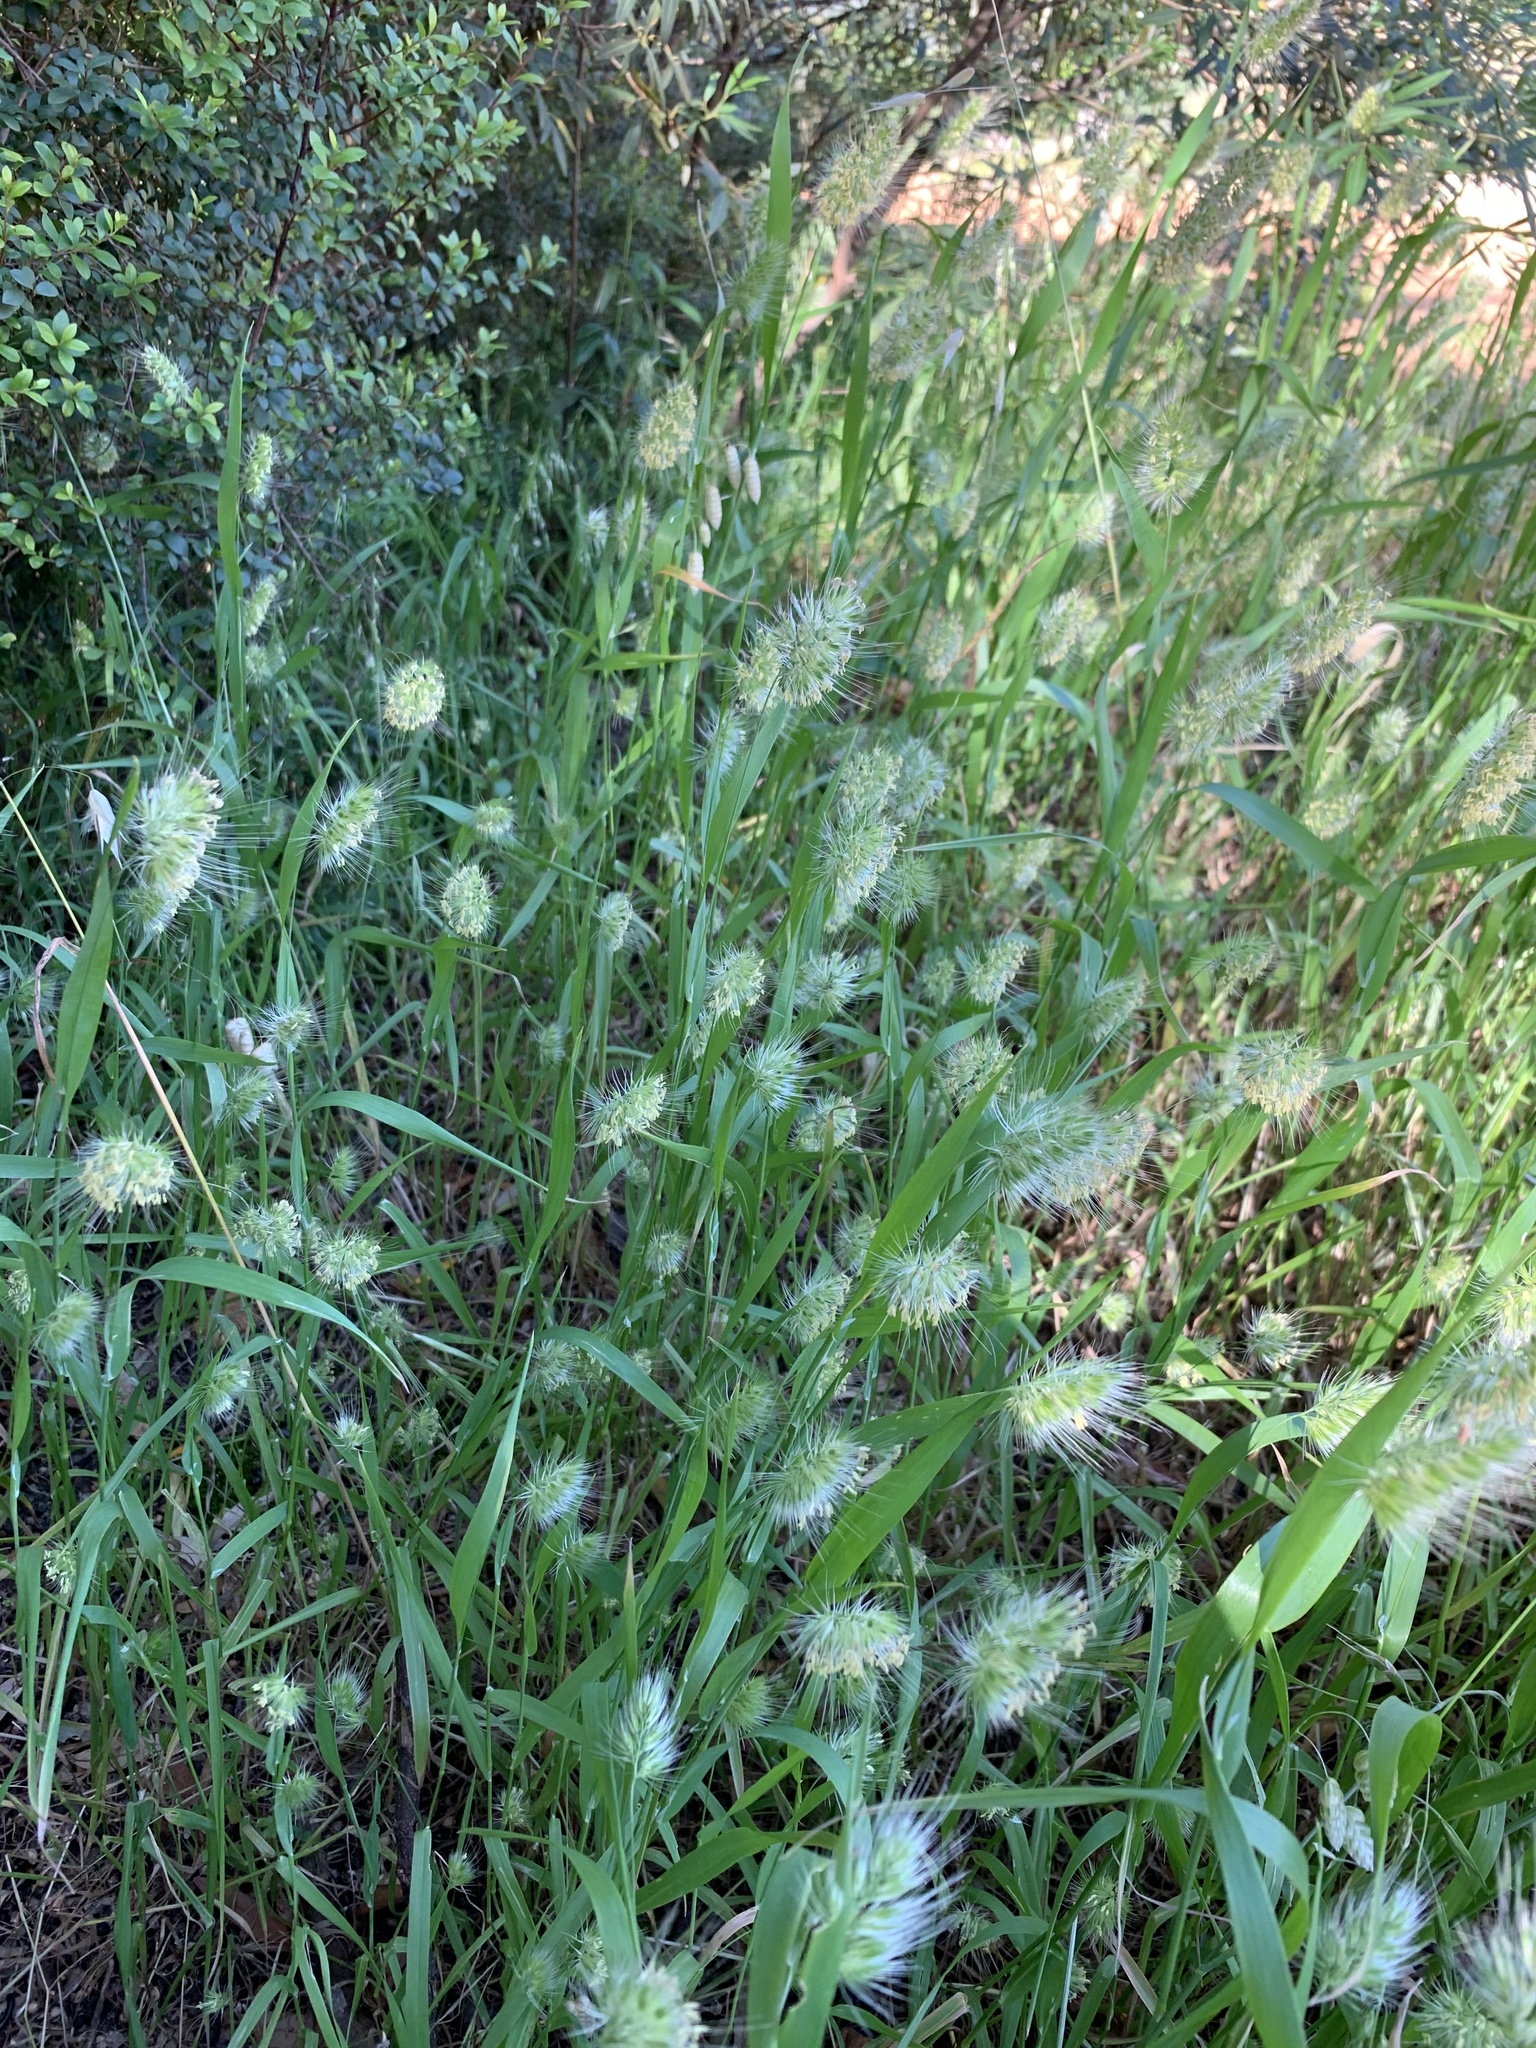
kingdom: Plantae
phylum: Tracheophyta
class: Liliopsida
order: Poales
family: Poaceae
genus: Cynosurus
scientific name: Cynosurus echinatus
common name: Rough dog's-tail
